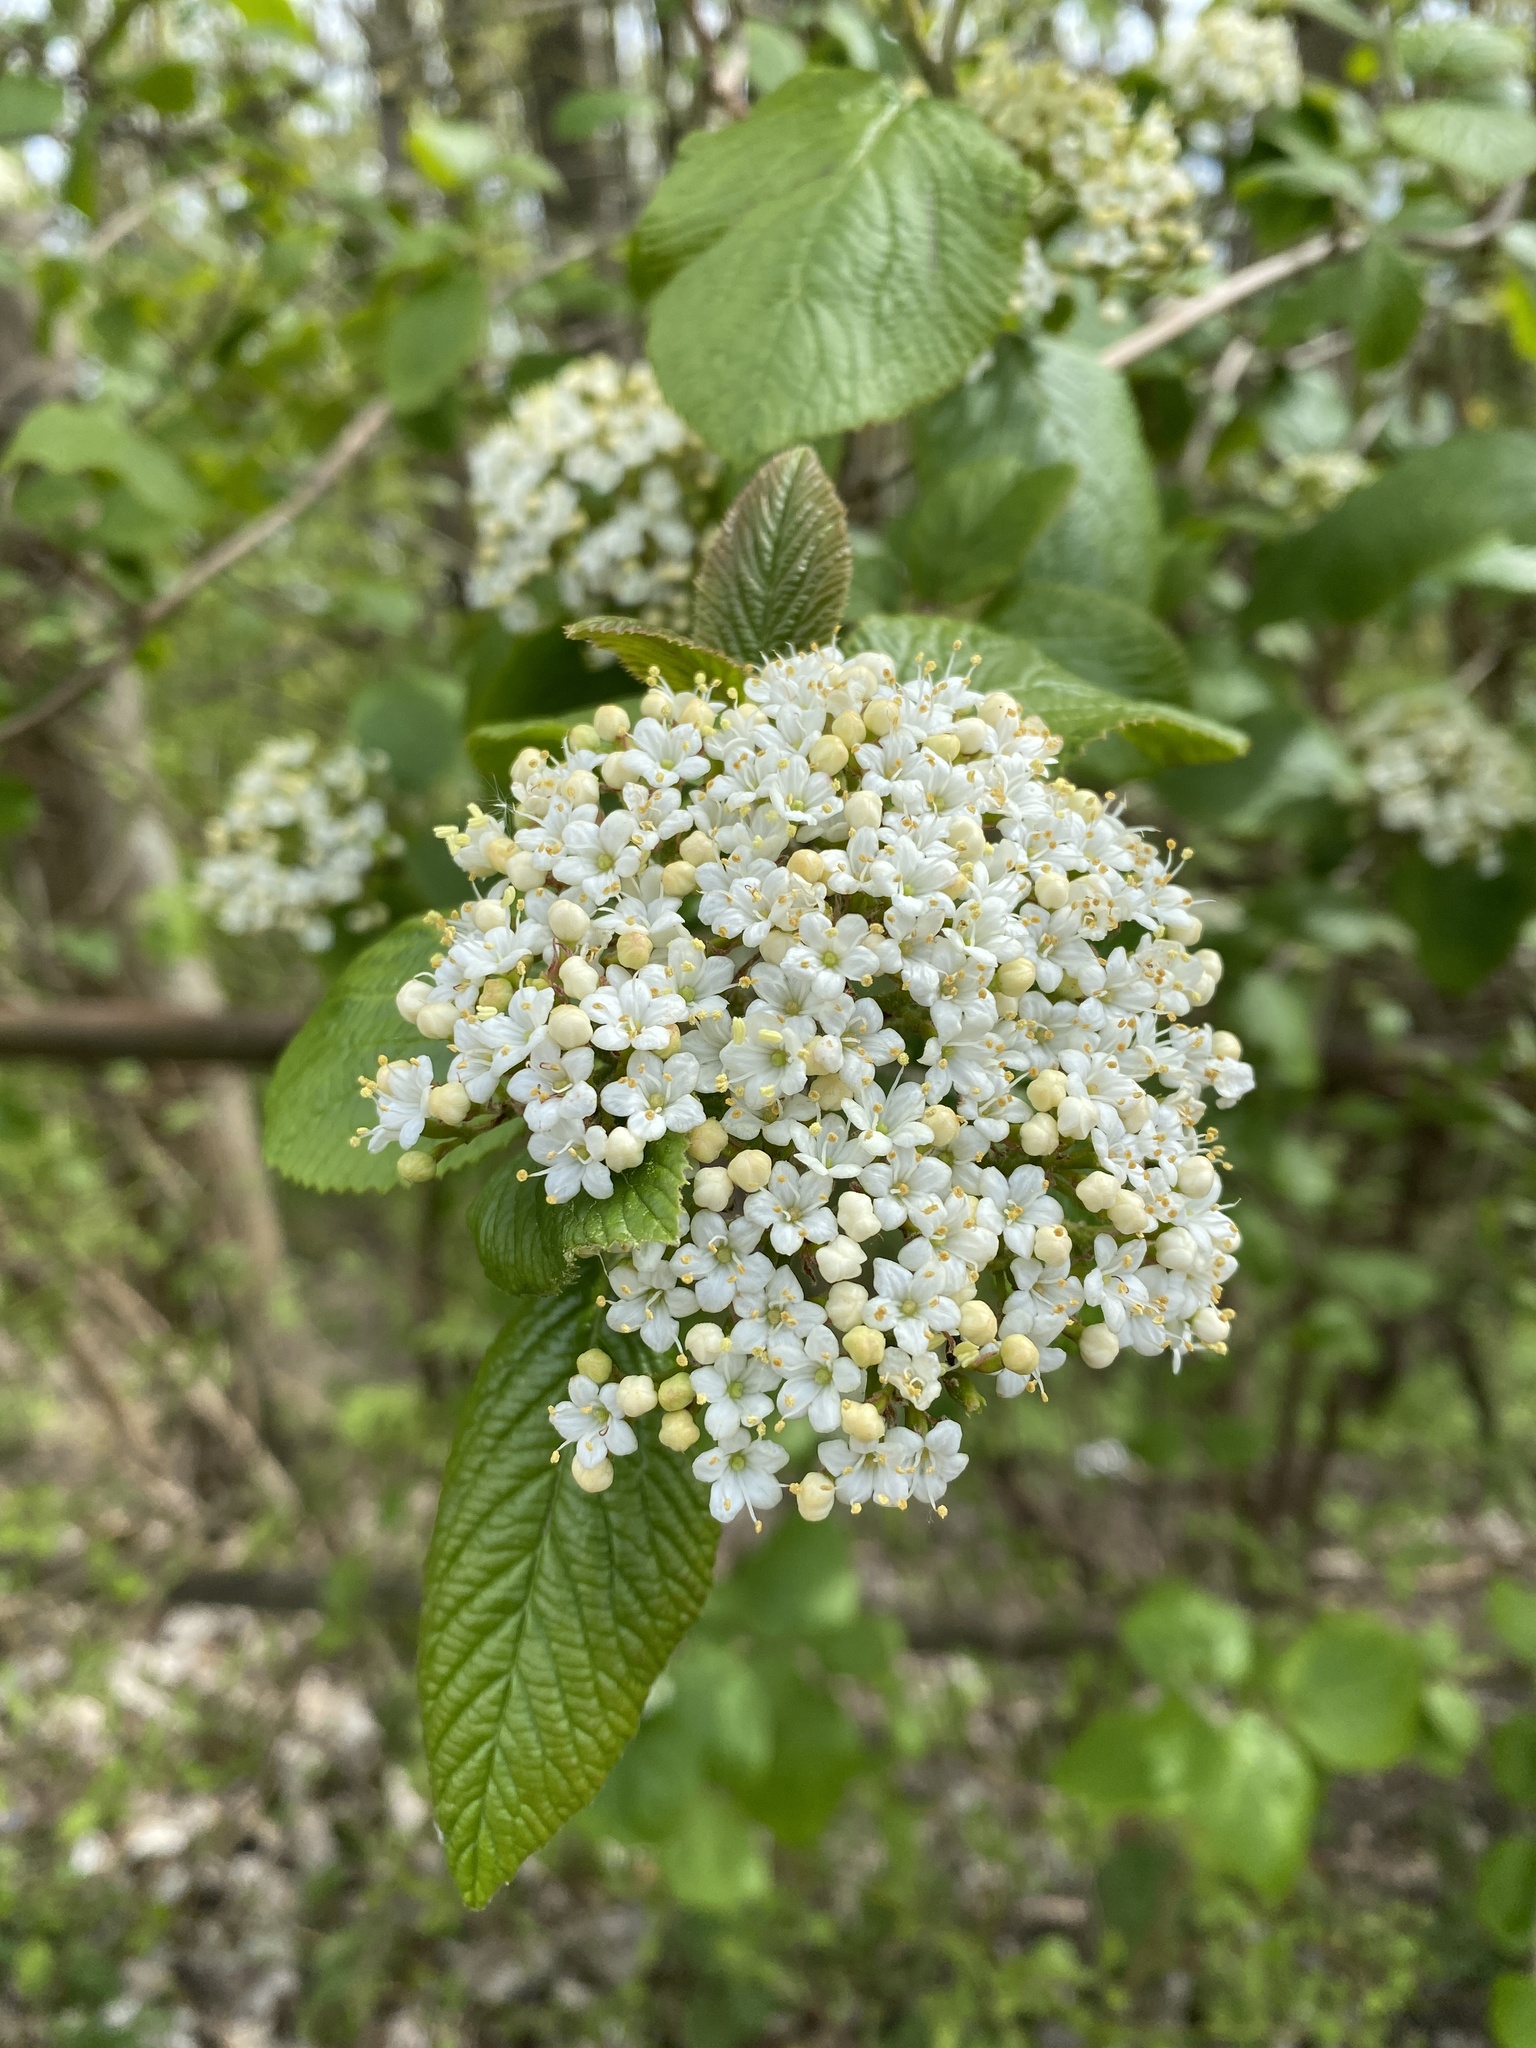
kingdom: Plantae
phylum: Tracheophyta
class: Magnoliopsida
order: Dipsacales
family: Viburnaceae
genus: Viburnum
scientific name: Viburnum lantana
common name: Wayfaring tree
